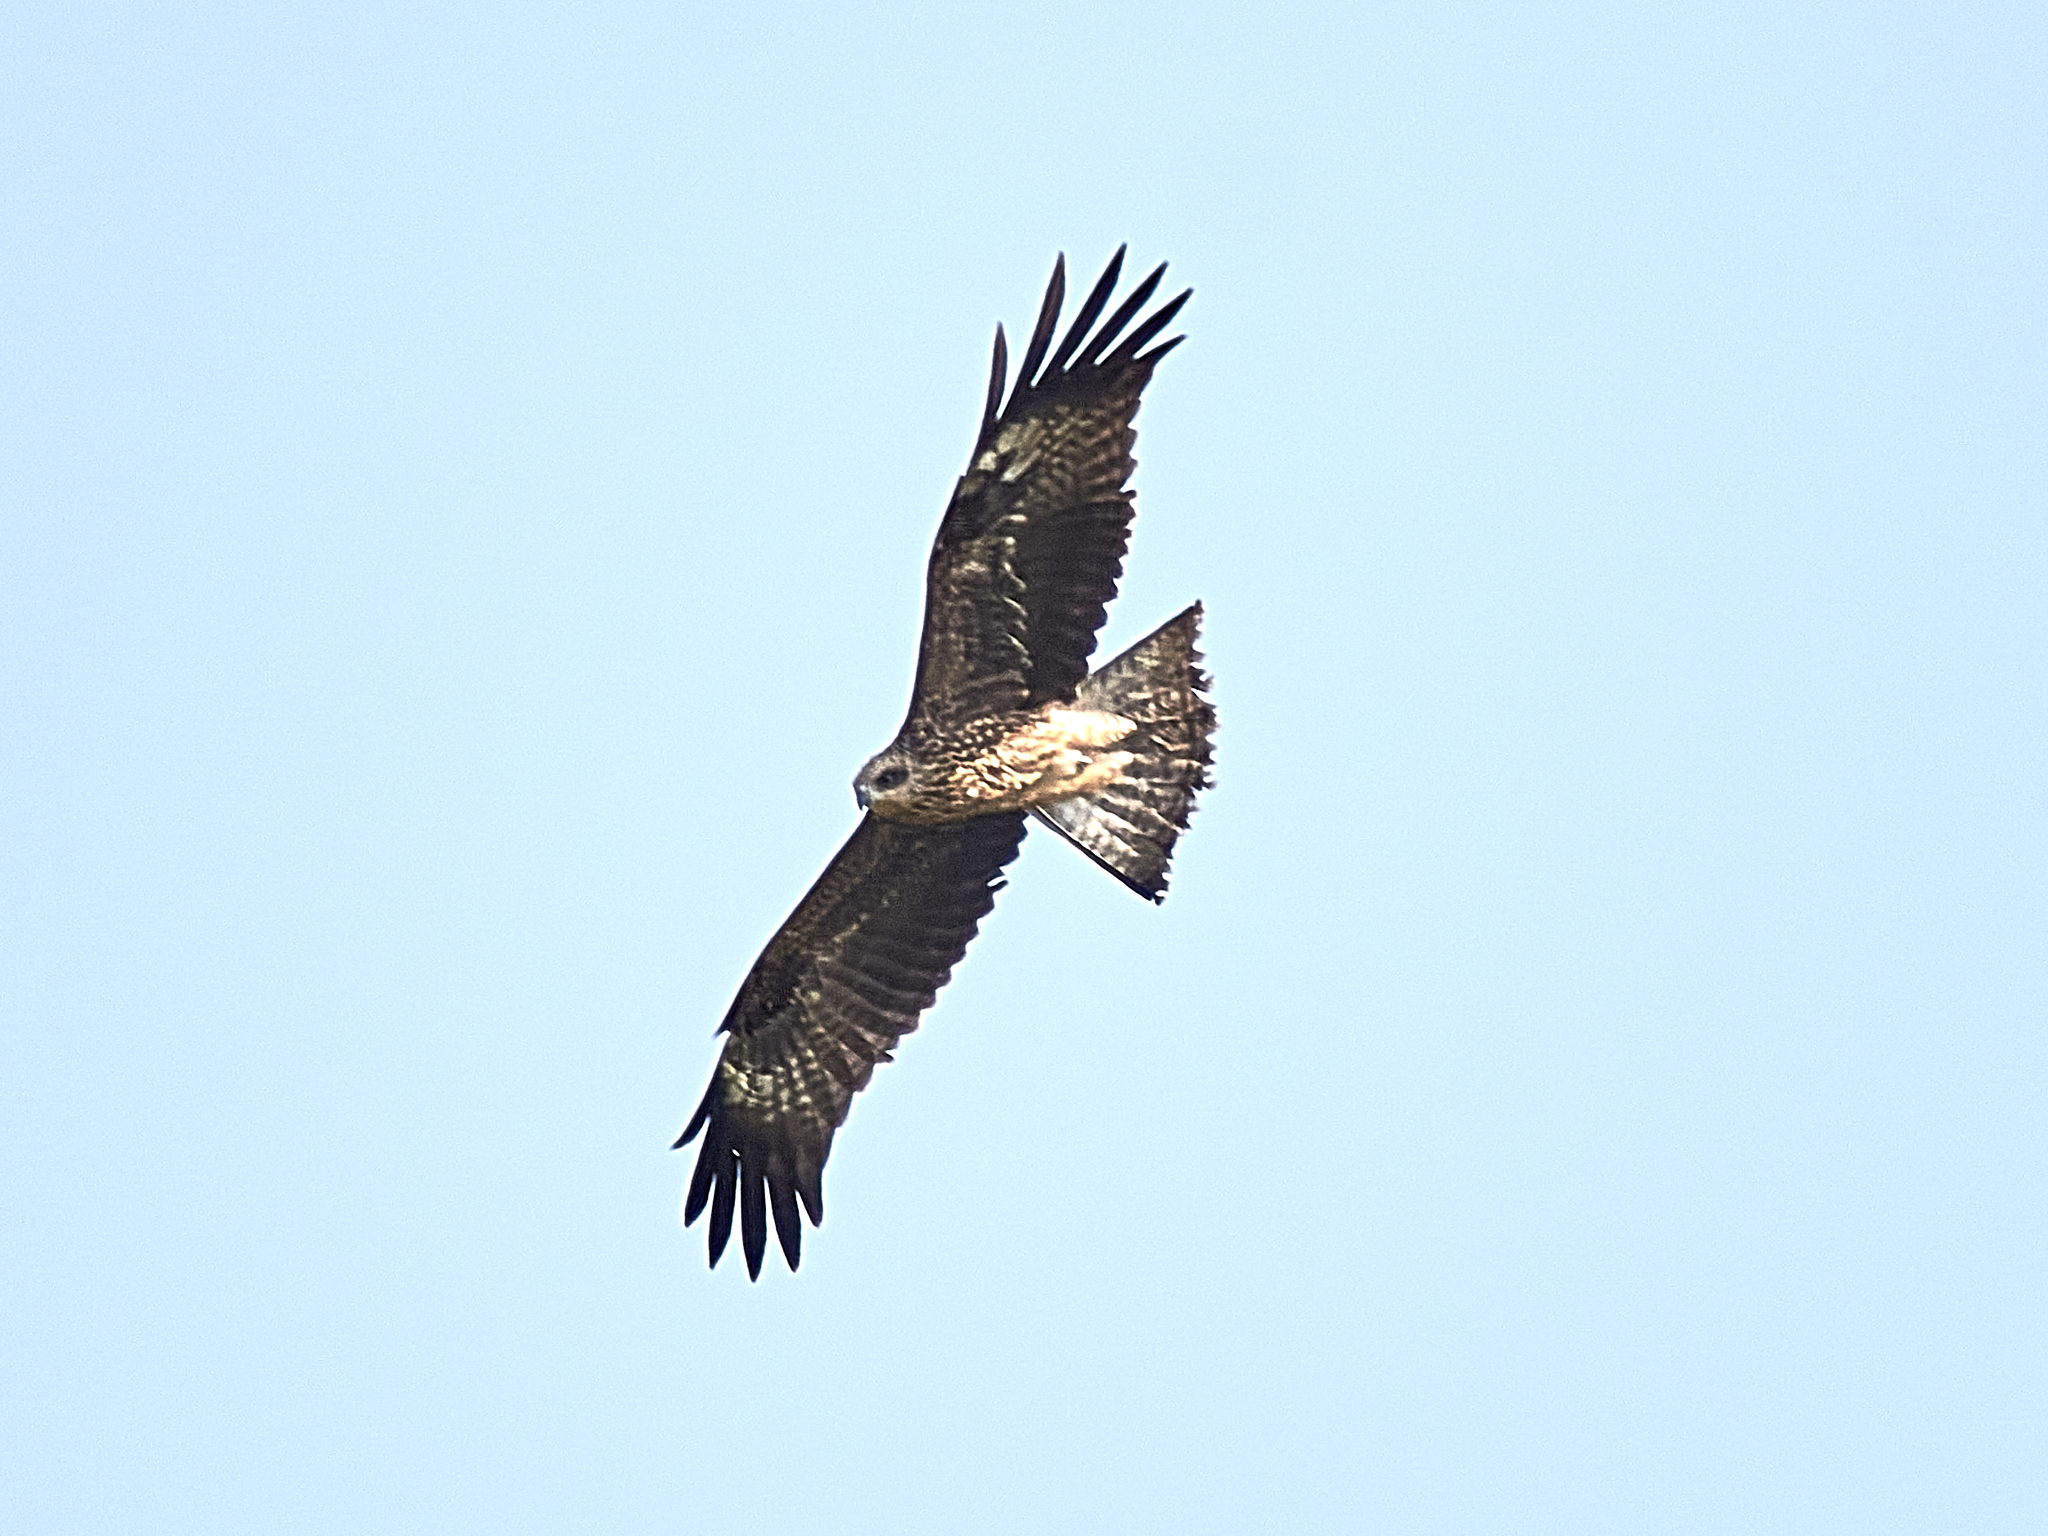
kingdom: Animalia
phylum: Chordata
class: Aves
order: Accipitriformes
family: Accipitridae
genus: Milvus
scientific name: Milvus migrans
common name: Black kite
